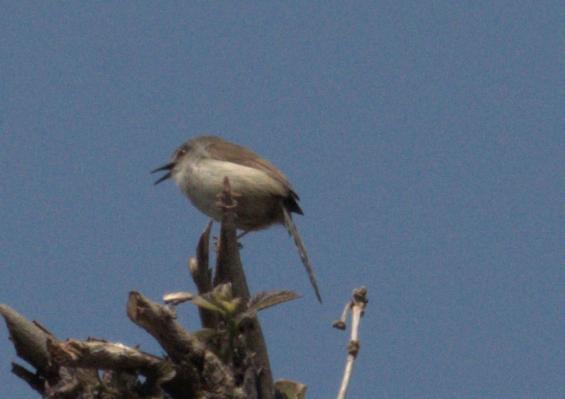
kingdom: Animalia
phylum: Chordata
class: Aves
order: Passeriformes
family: Cisticolidae
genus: Prinia
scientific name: Prinia hodgsonii
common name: Grey-breasted prinia
